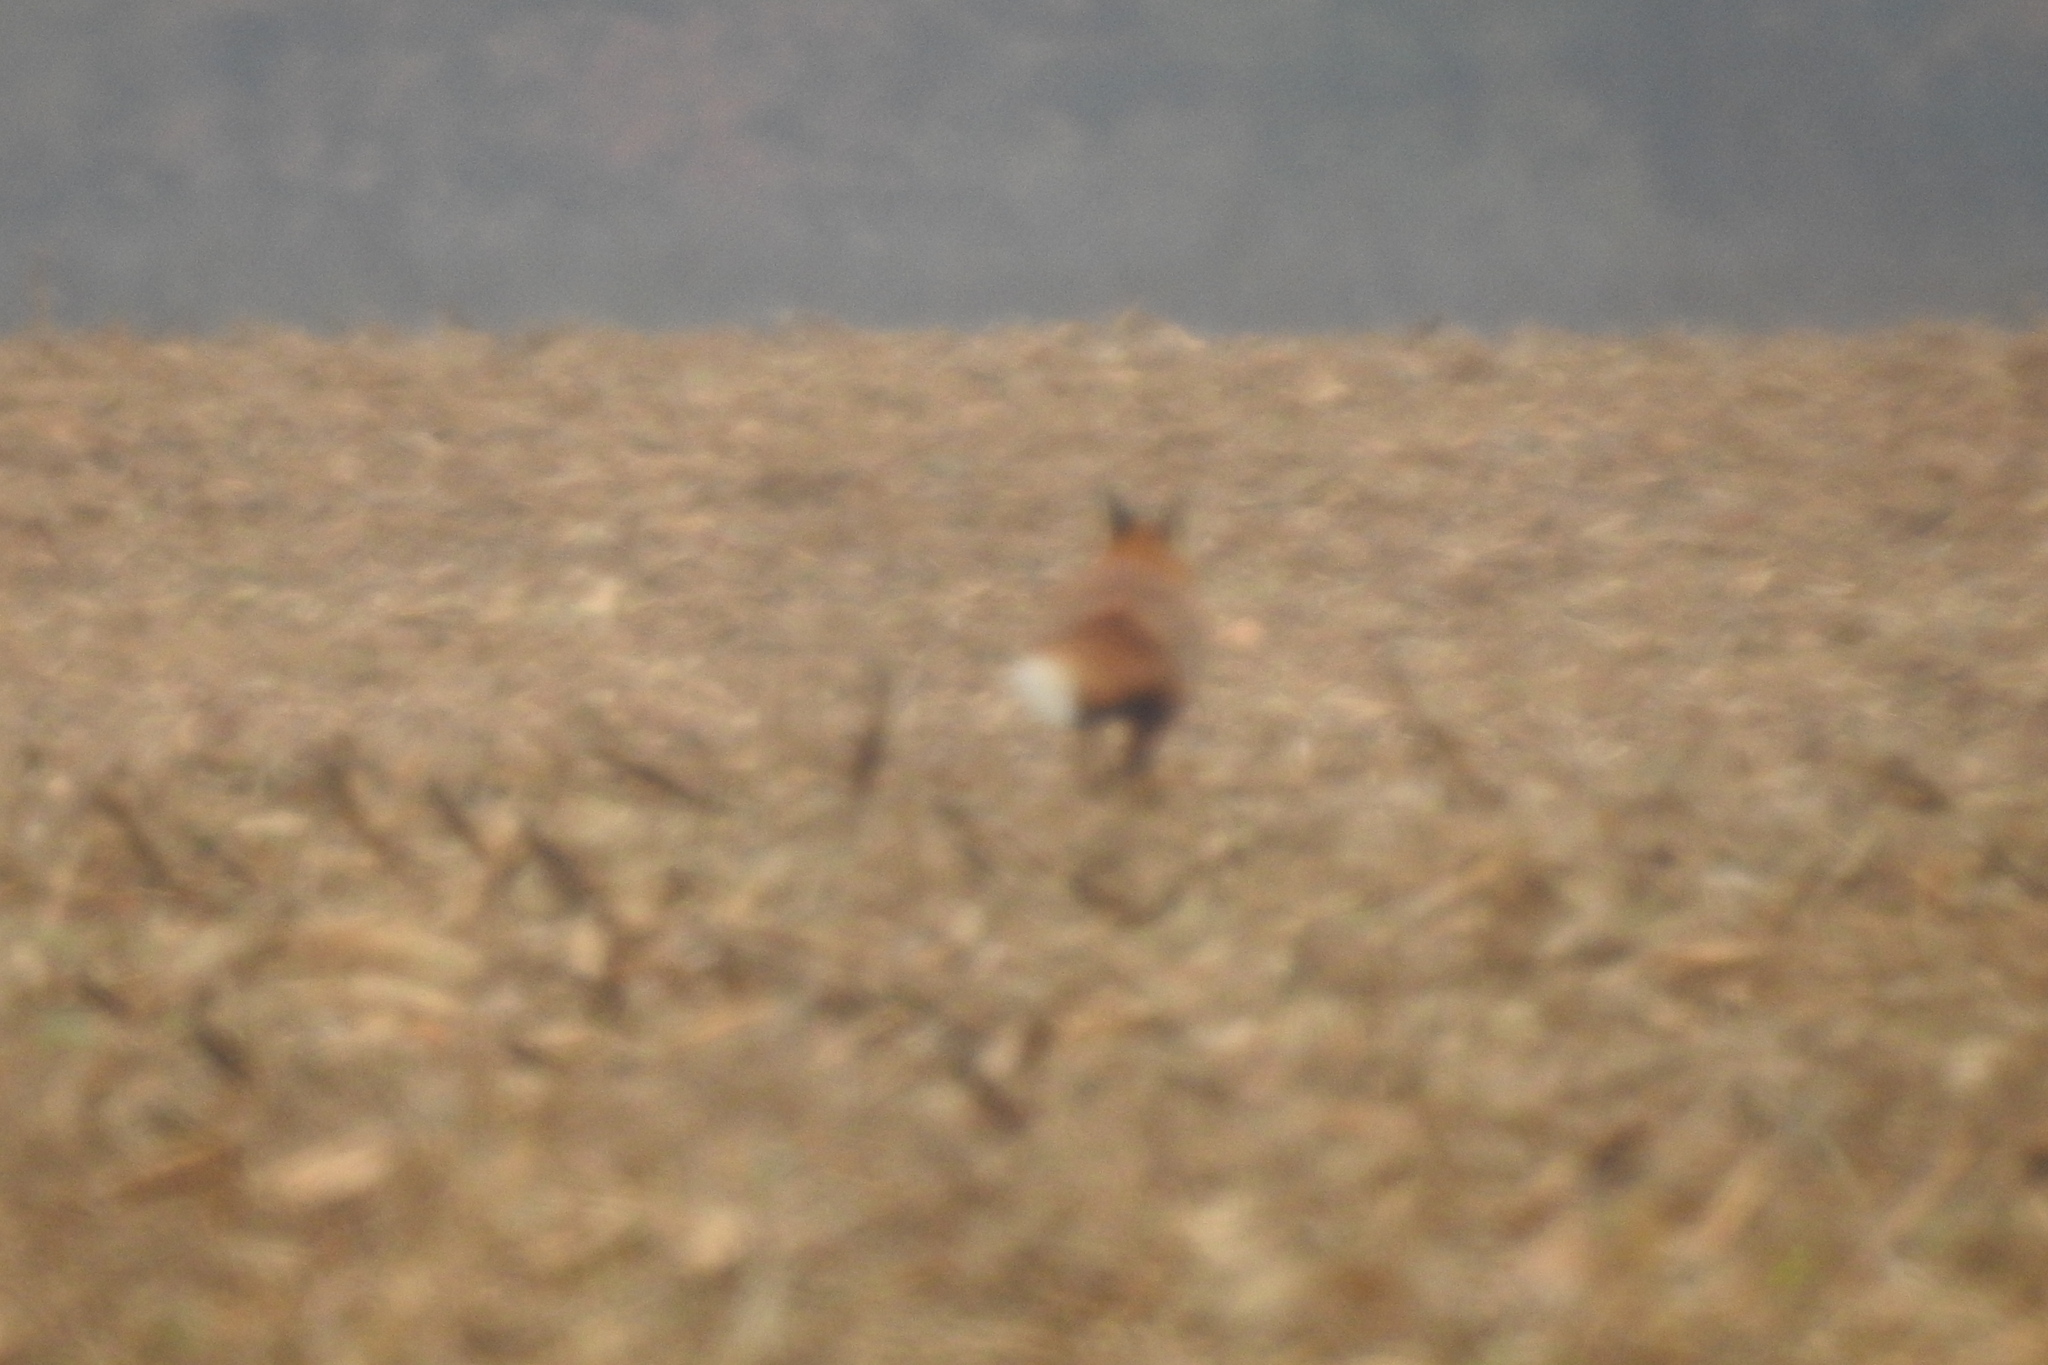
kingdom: Animalia
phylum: Chordata
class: Mammalia
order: Carnivora
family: Canidae
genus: Vulpes
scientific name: Vulpes vulpes
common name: Red fox
